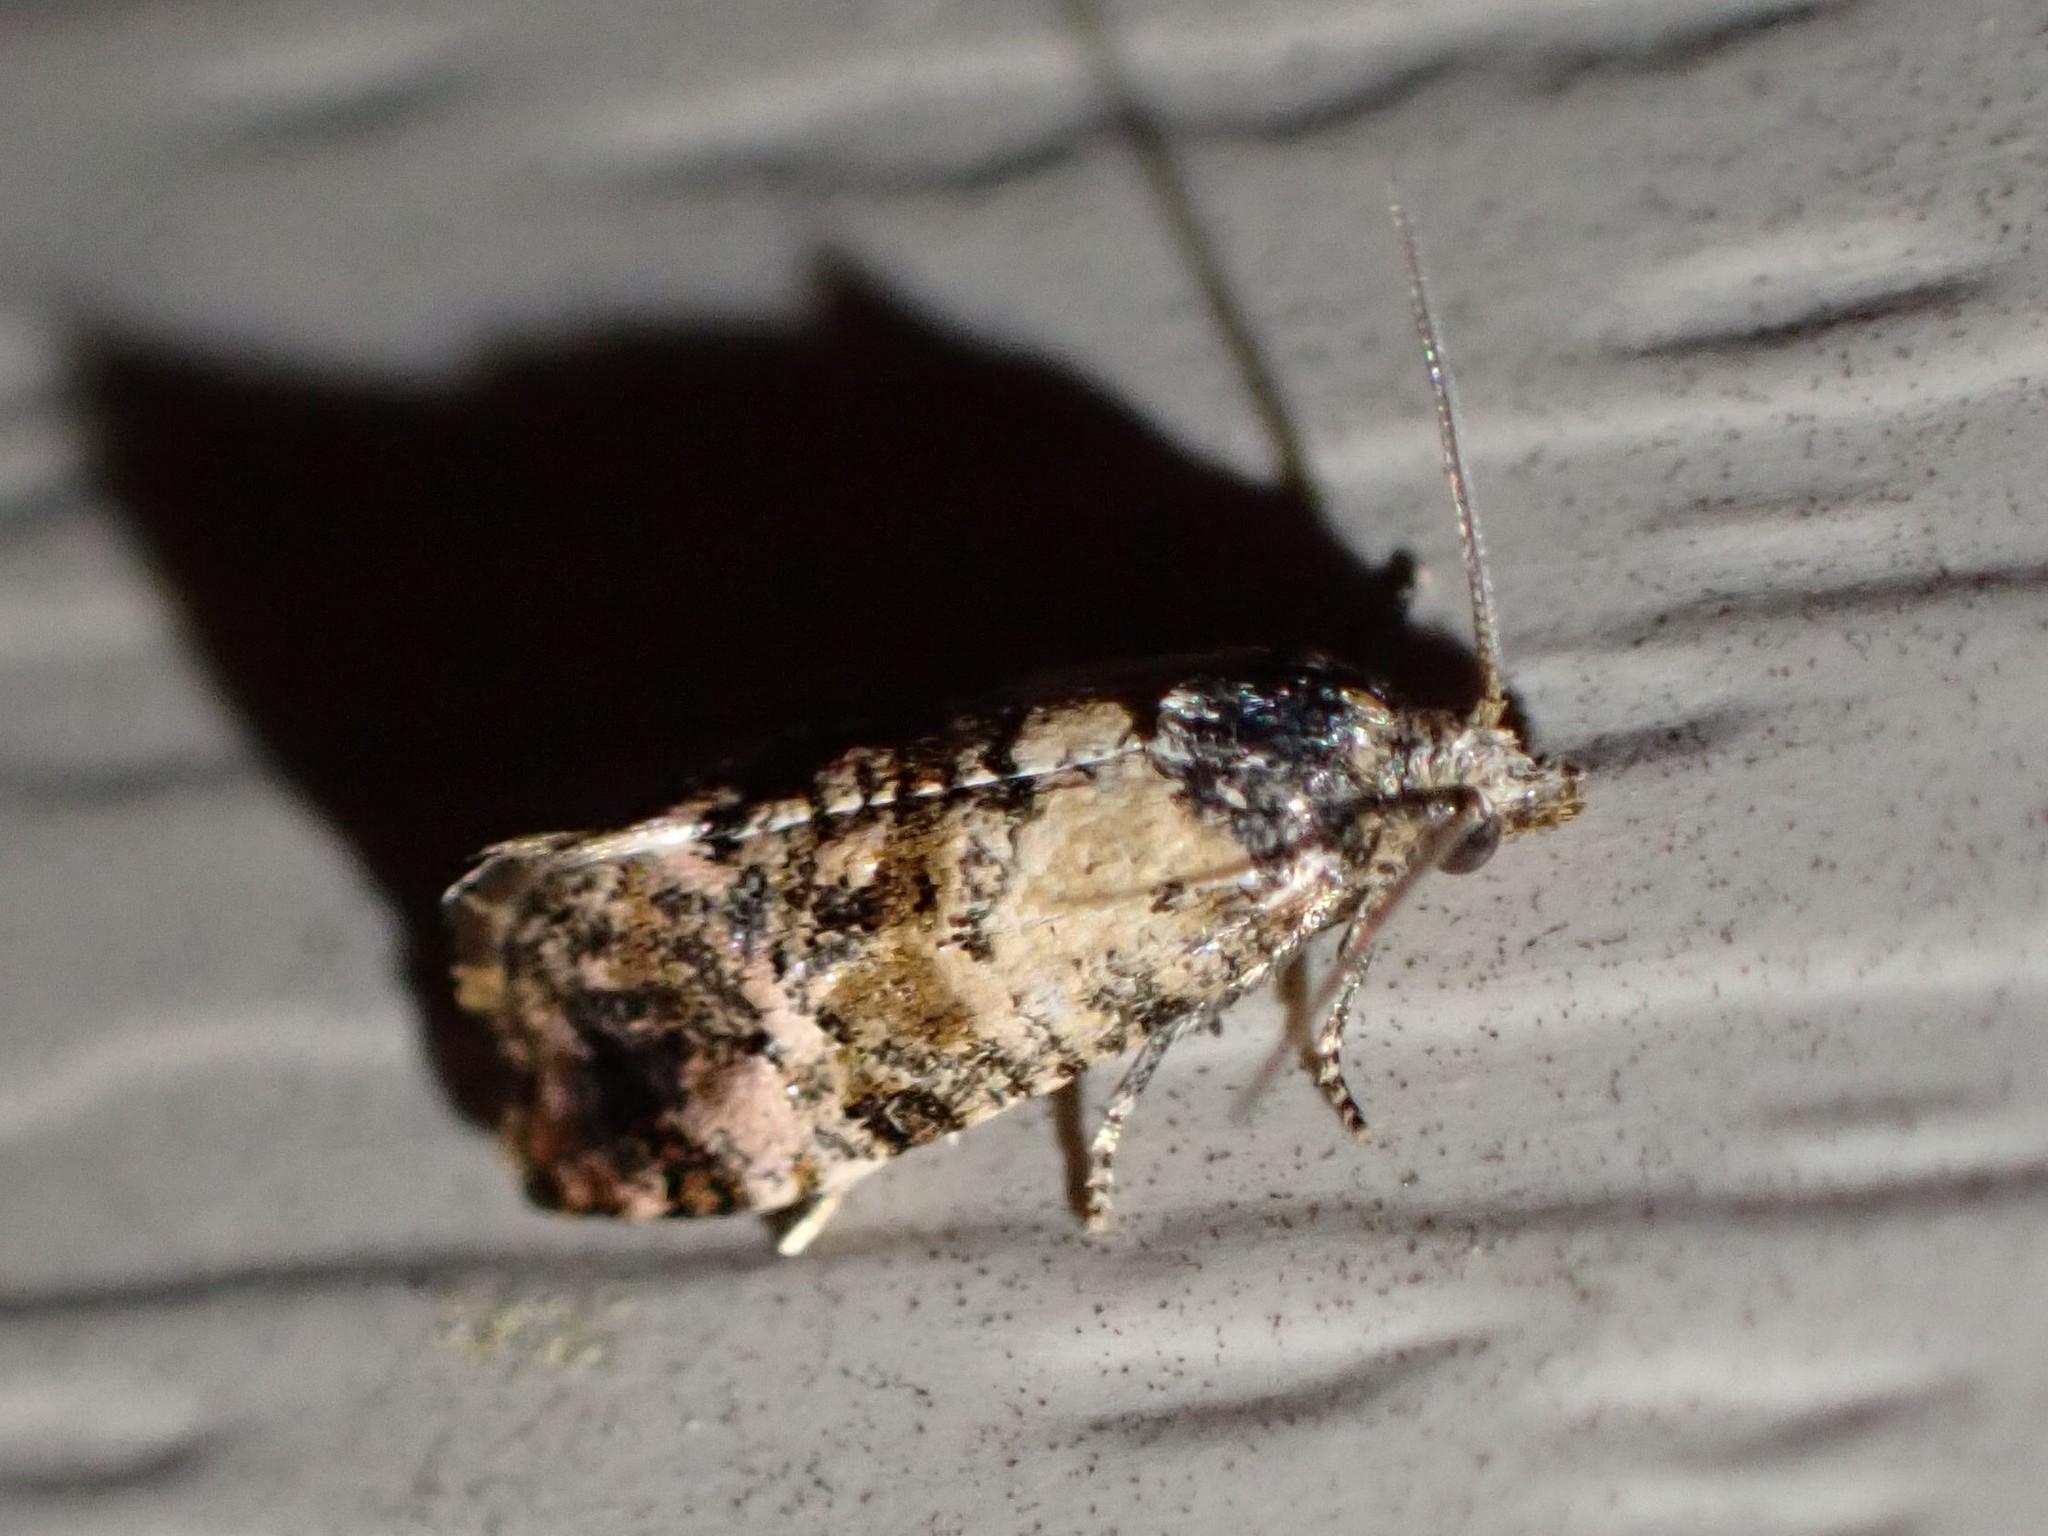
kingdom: Animalia
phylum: Arthropoda
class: Insecta
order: Lepidoptera
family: Tortricidae
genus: Cochylis
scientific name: Cochylis Cochylichroa hoffmanana
